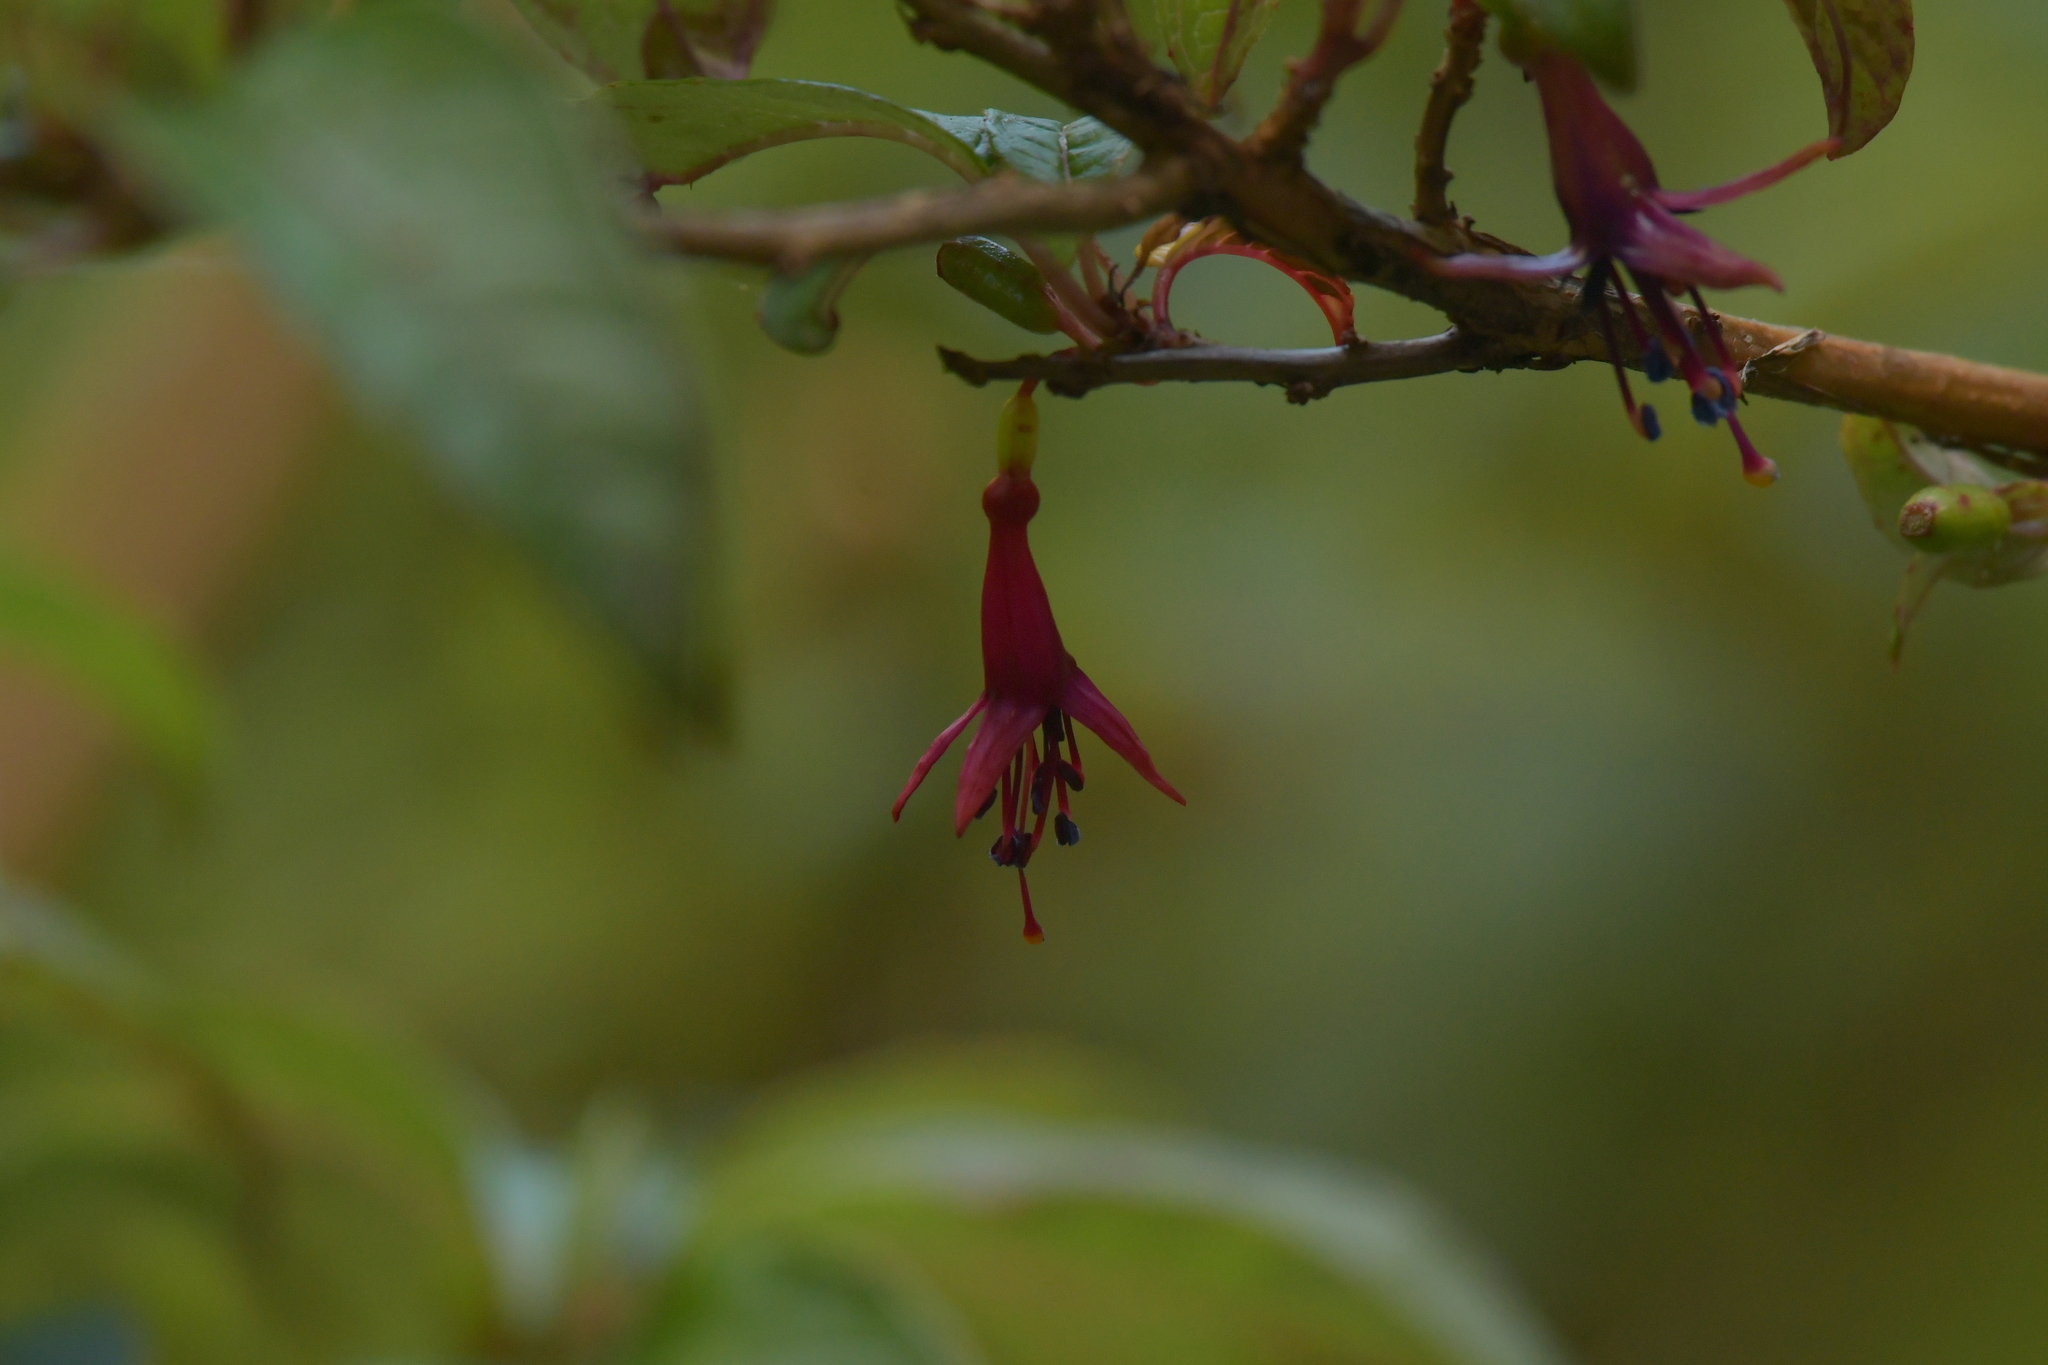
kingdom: Plantae
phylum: Tracheophyta
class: Magnoliopsida
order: Myrtales
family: Onagraceae
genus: Fuchsia
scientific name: Fuchsia excorticata
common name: Tree fuchsia
